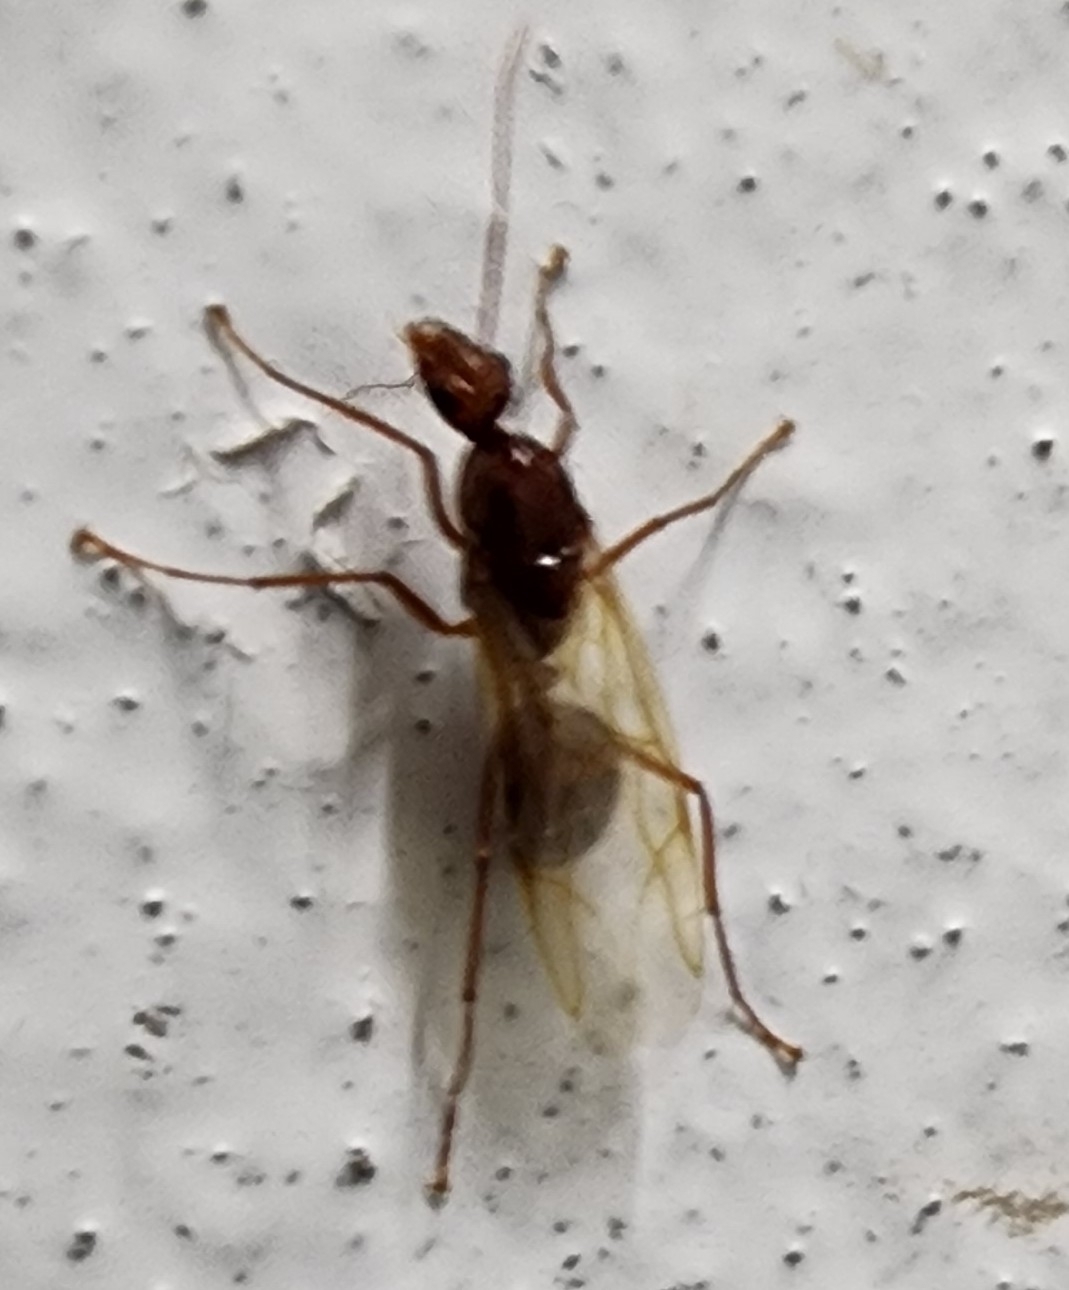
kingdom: Animalia
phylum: Arthropoda
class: Insecta
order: Hymenoptera
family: Formicidae
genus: Camponotus
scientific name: Camponotus castaneus
